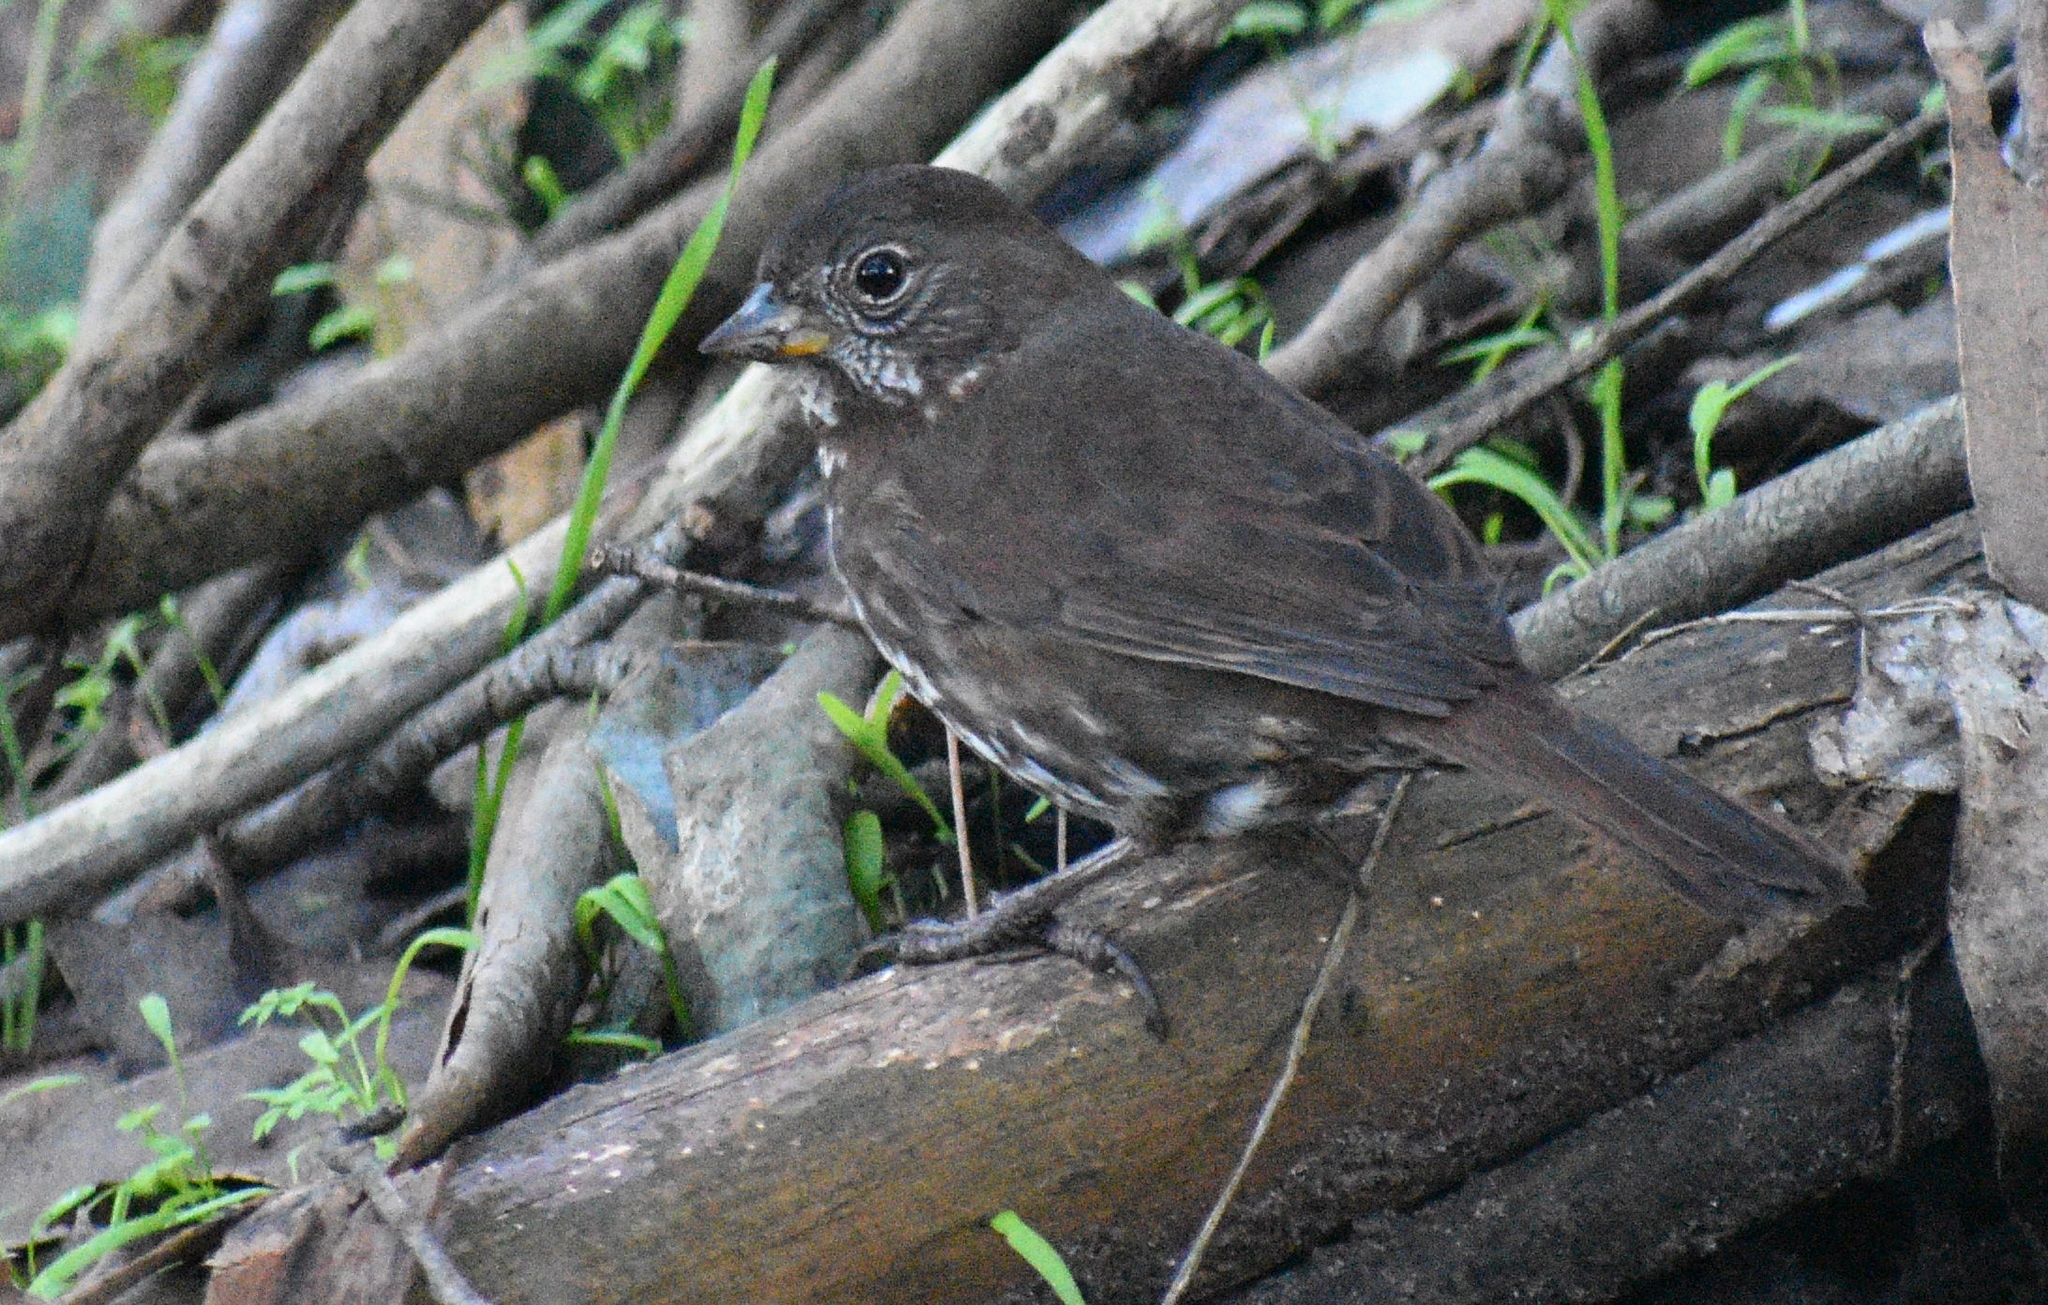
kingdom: Animalia
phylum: Chordata
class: Aves
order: Passeriformes
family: Passerellidae
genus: Passerella
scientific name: Passerella iliaca
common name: Fox sparrow
